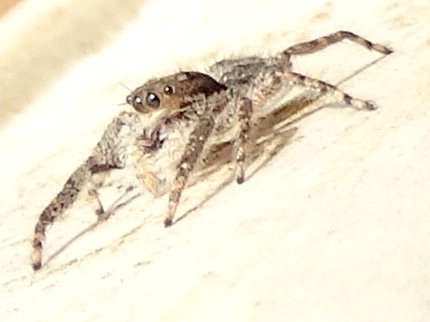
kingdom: Animalia
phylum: Arthropoda
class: Arachnida
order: Araneae
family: Salticidae
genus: Balmaceda
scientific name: Balmaceda
